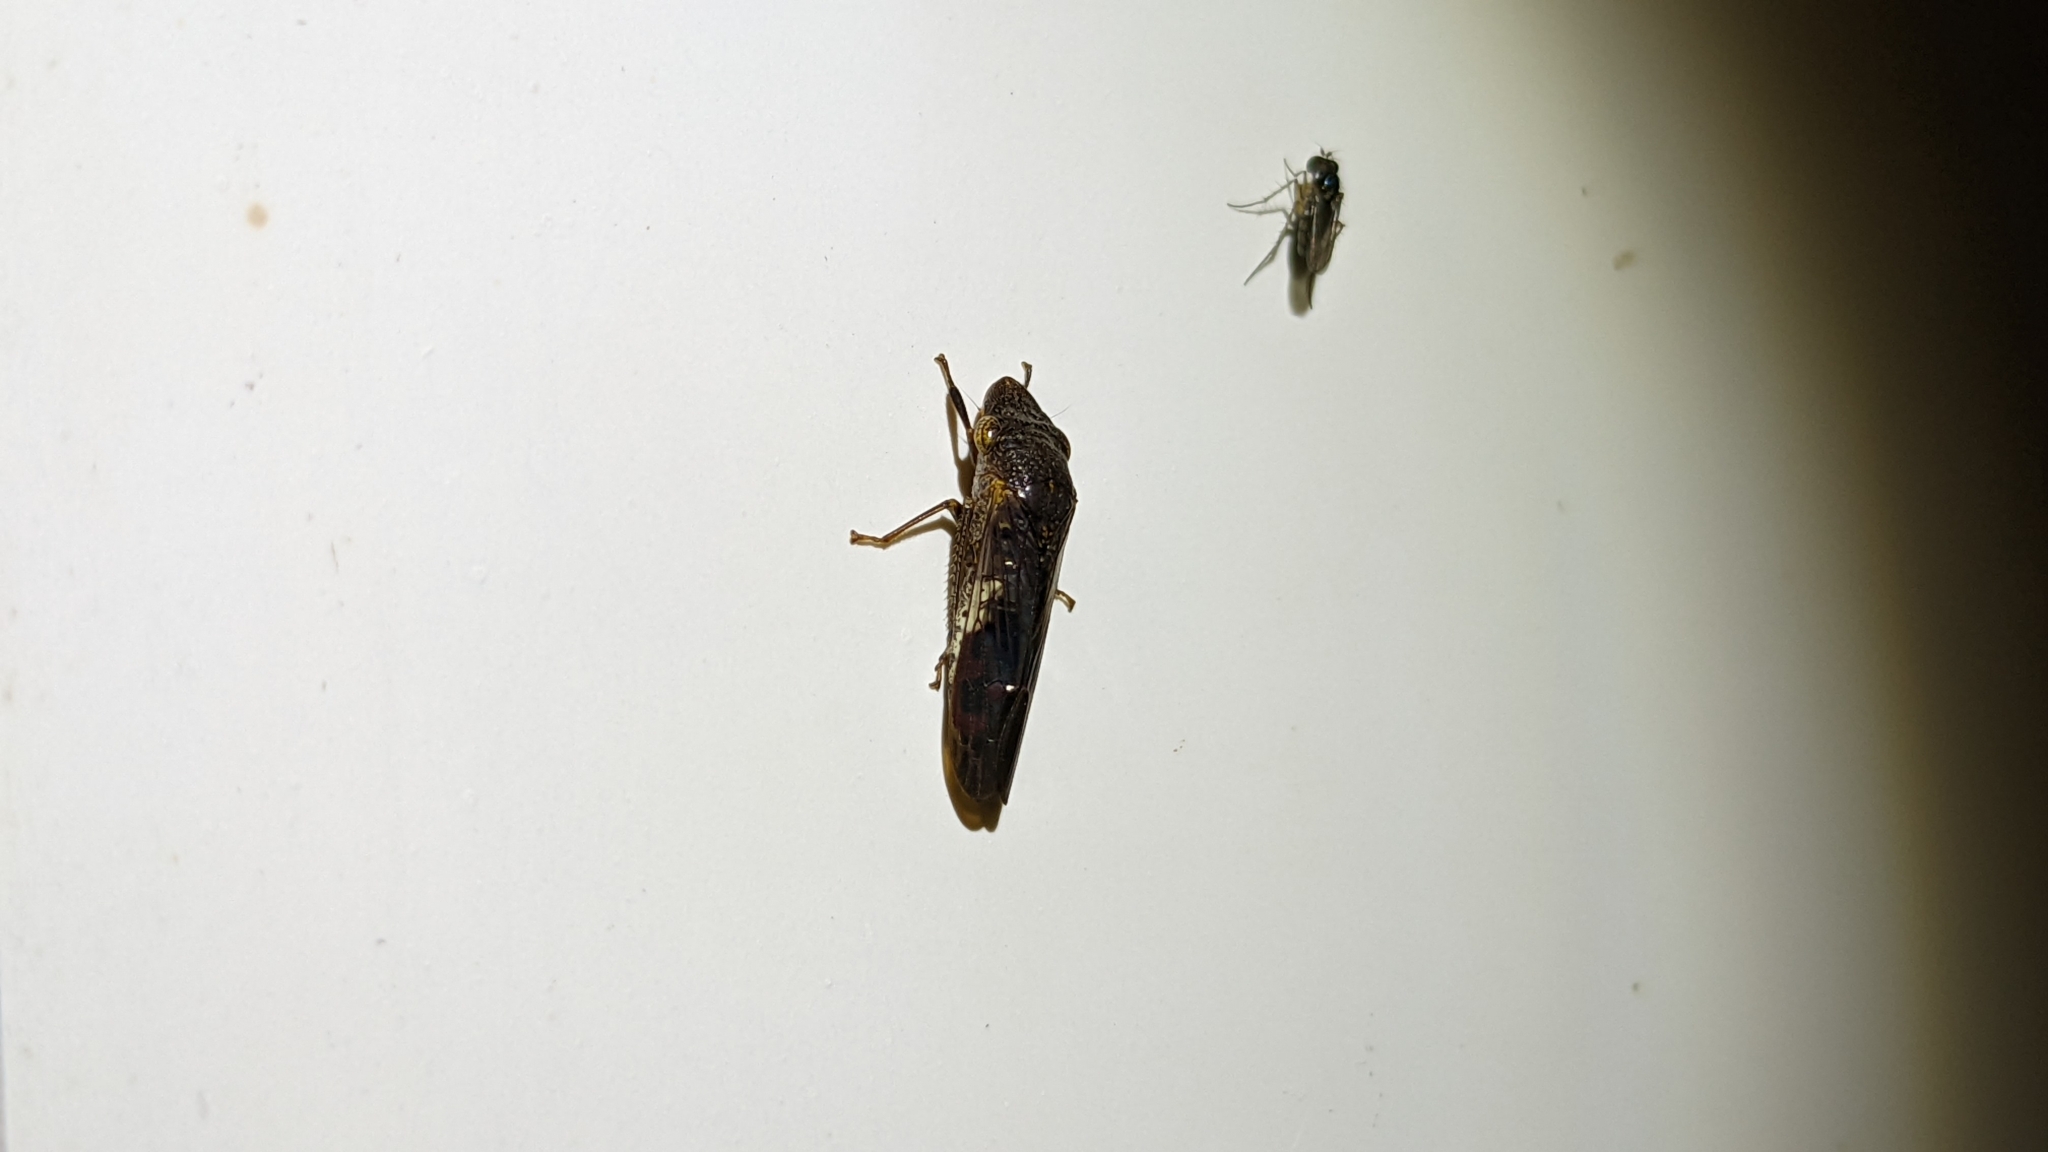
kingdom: Animalia
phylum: Arthropoda
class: Insecta
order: Hemiptera
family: Cicadellidae
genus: Homalodisca
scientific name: Homalodisca vitripennis
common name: Glassy-winged sharpshooter
